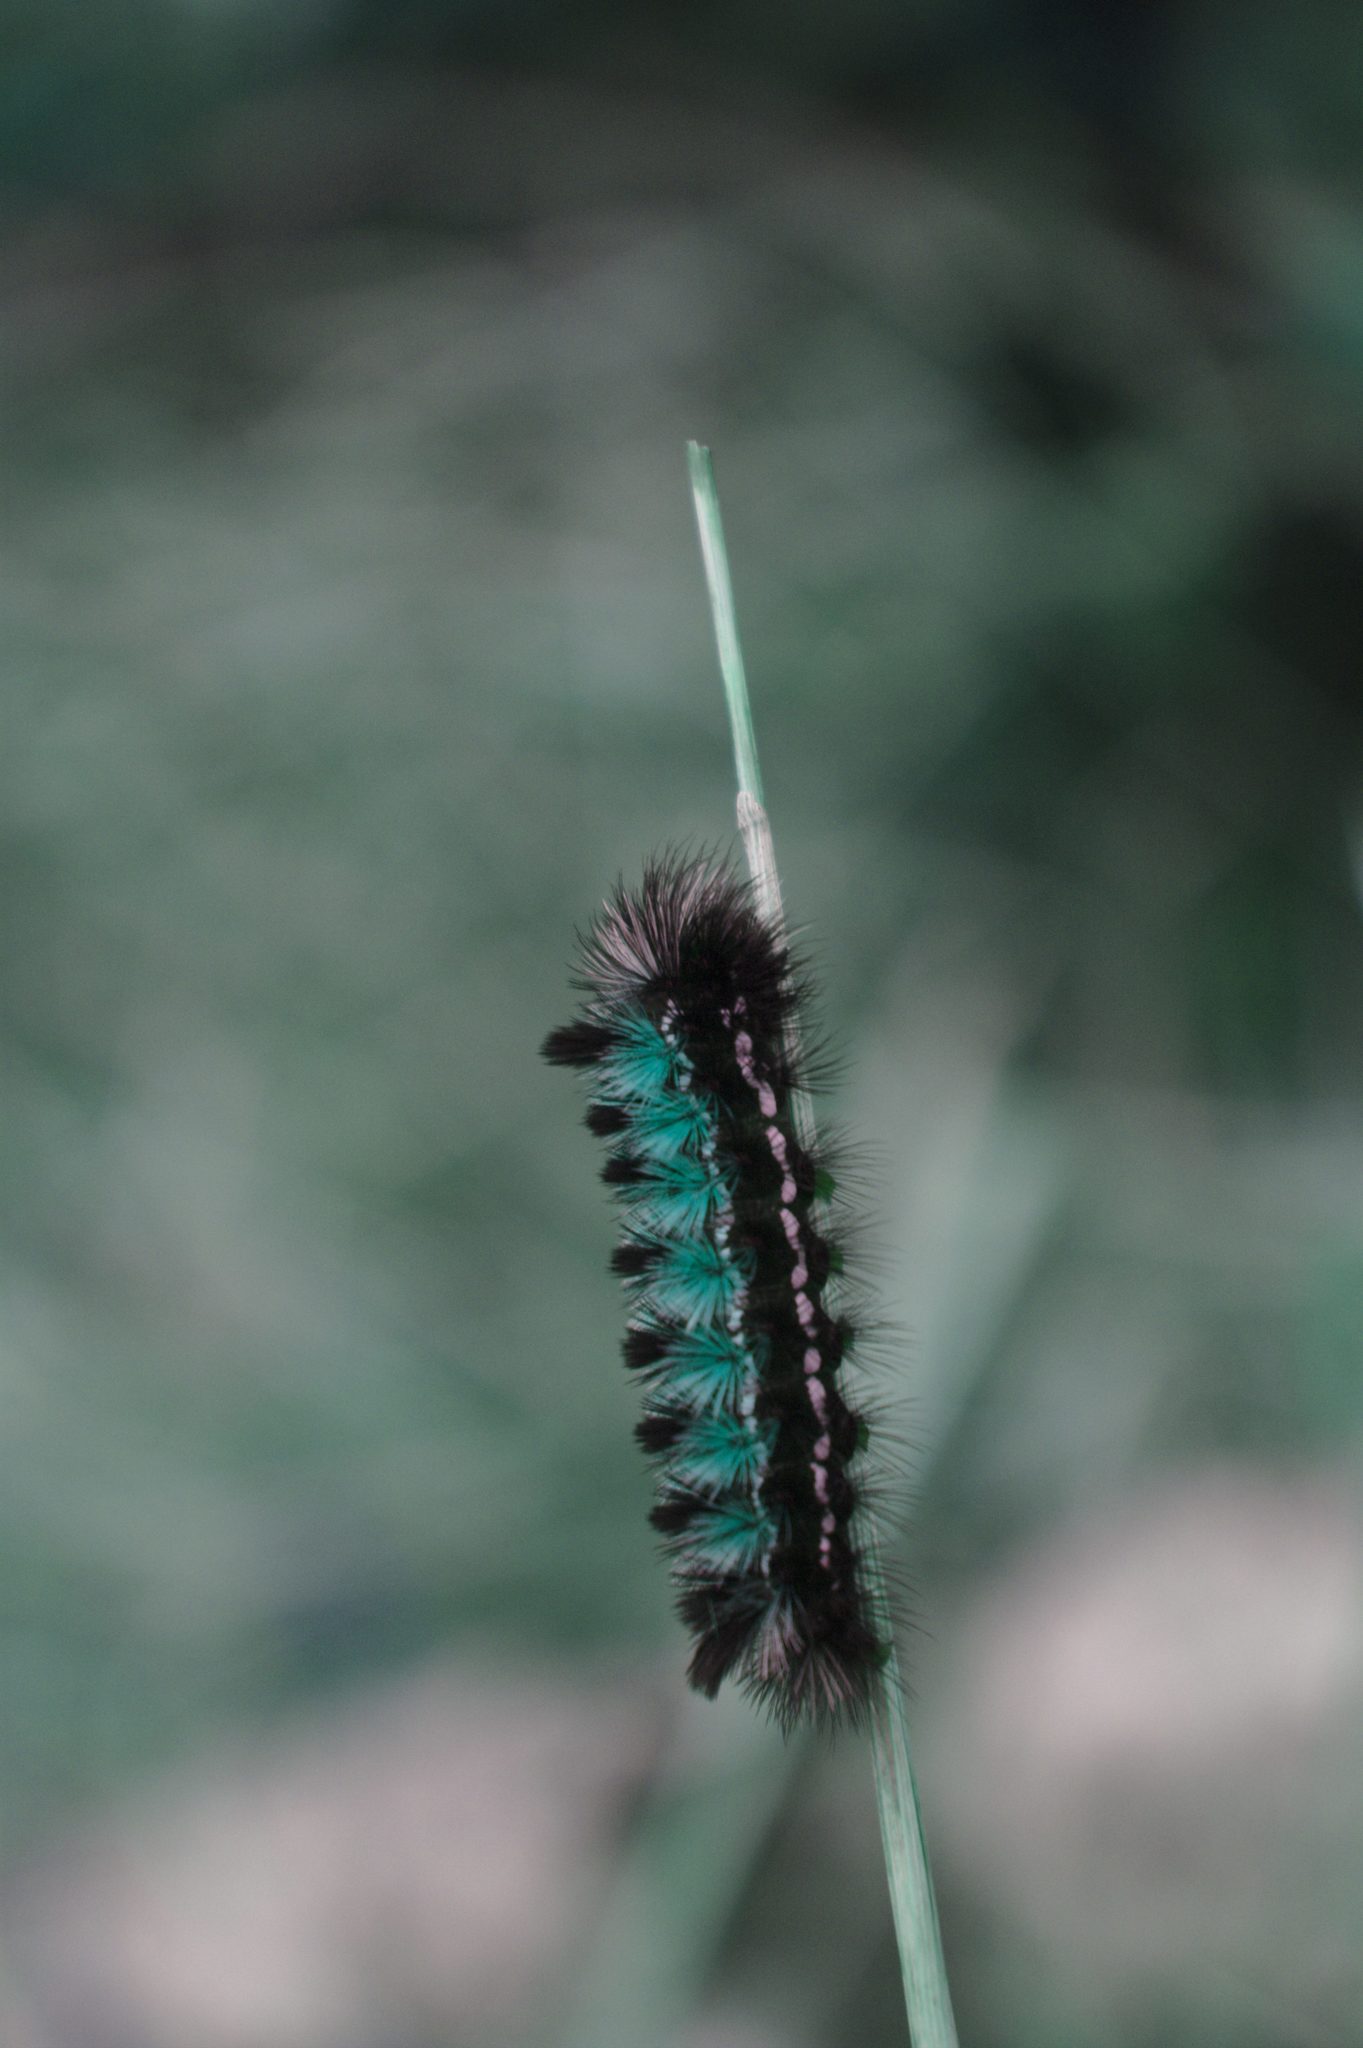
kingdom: Animalia
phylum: Arthropoda
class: Insecta
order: Lepidoptera
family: Erebidae
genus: Ctenucha
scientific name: Ctenucha virginica
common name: Virginia ctenucha moth
